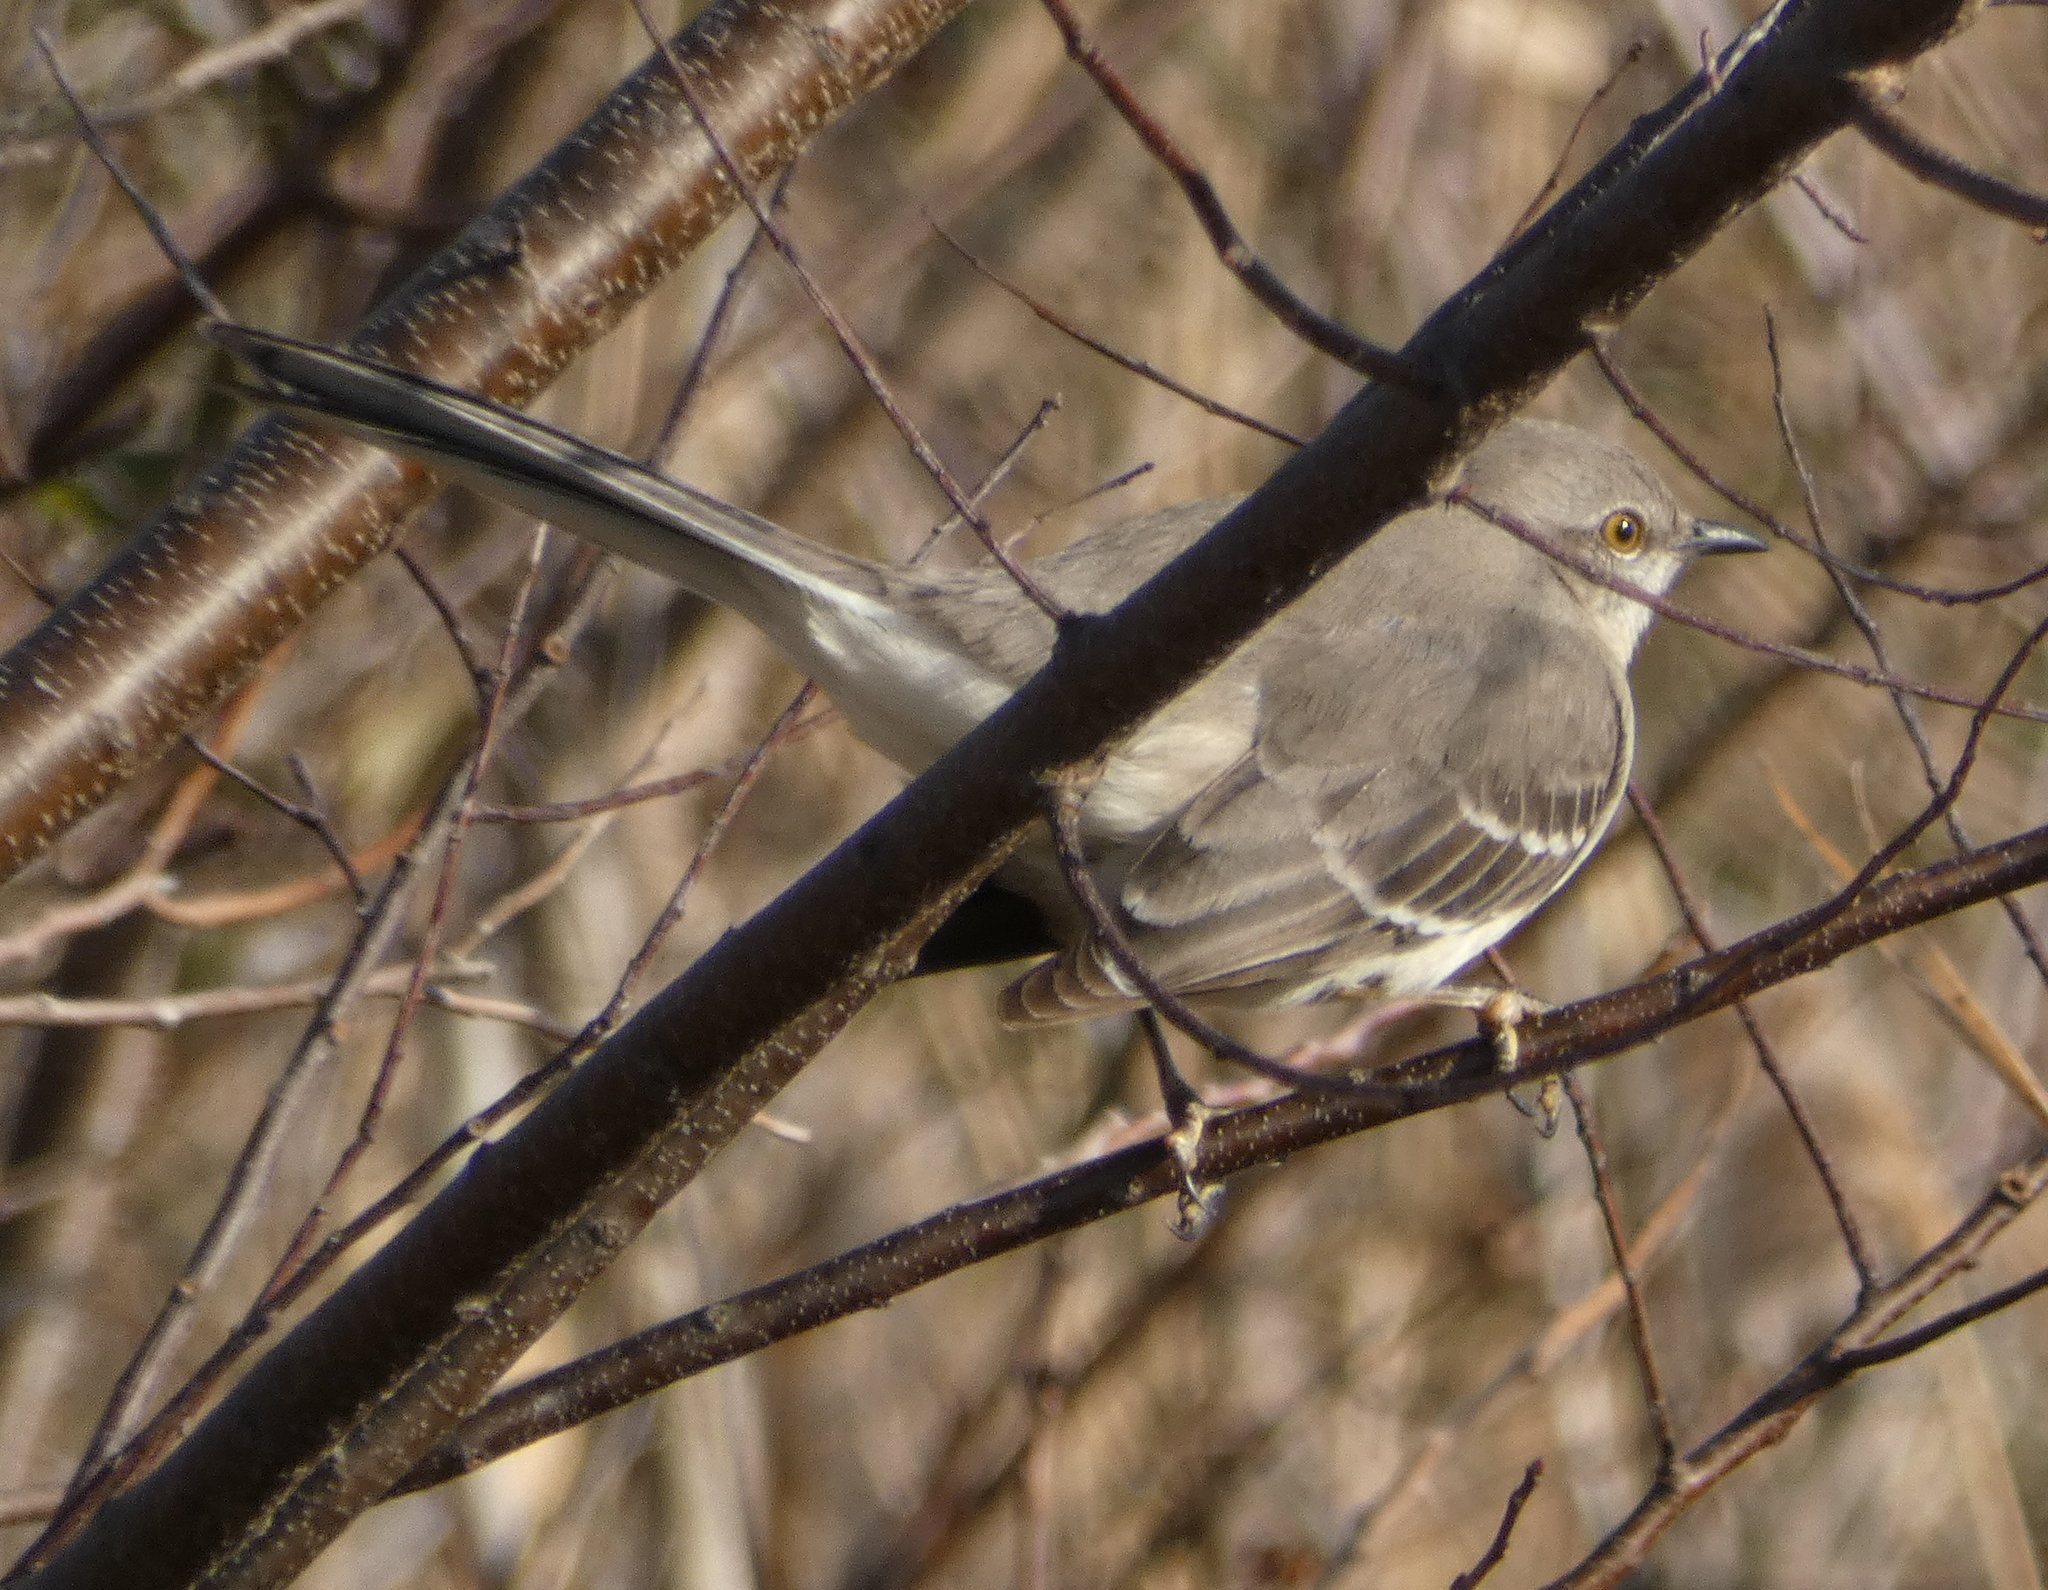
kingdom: Animalia
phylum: Chordata
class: Aves
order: Passeriformes
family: Mimidae
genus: Mimus
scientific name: Mimus polyglottos
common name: Northern mockingbird
